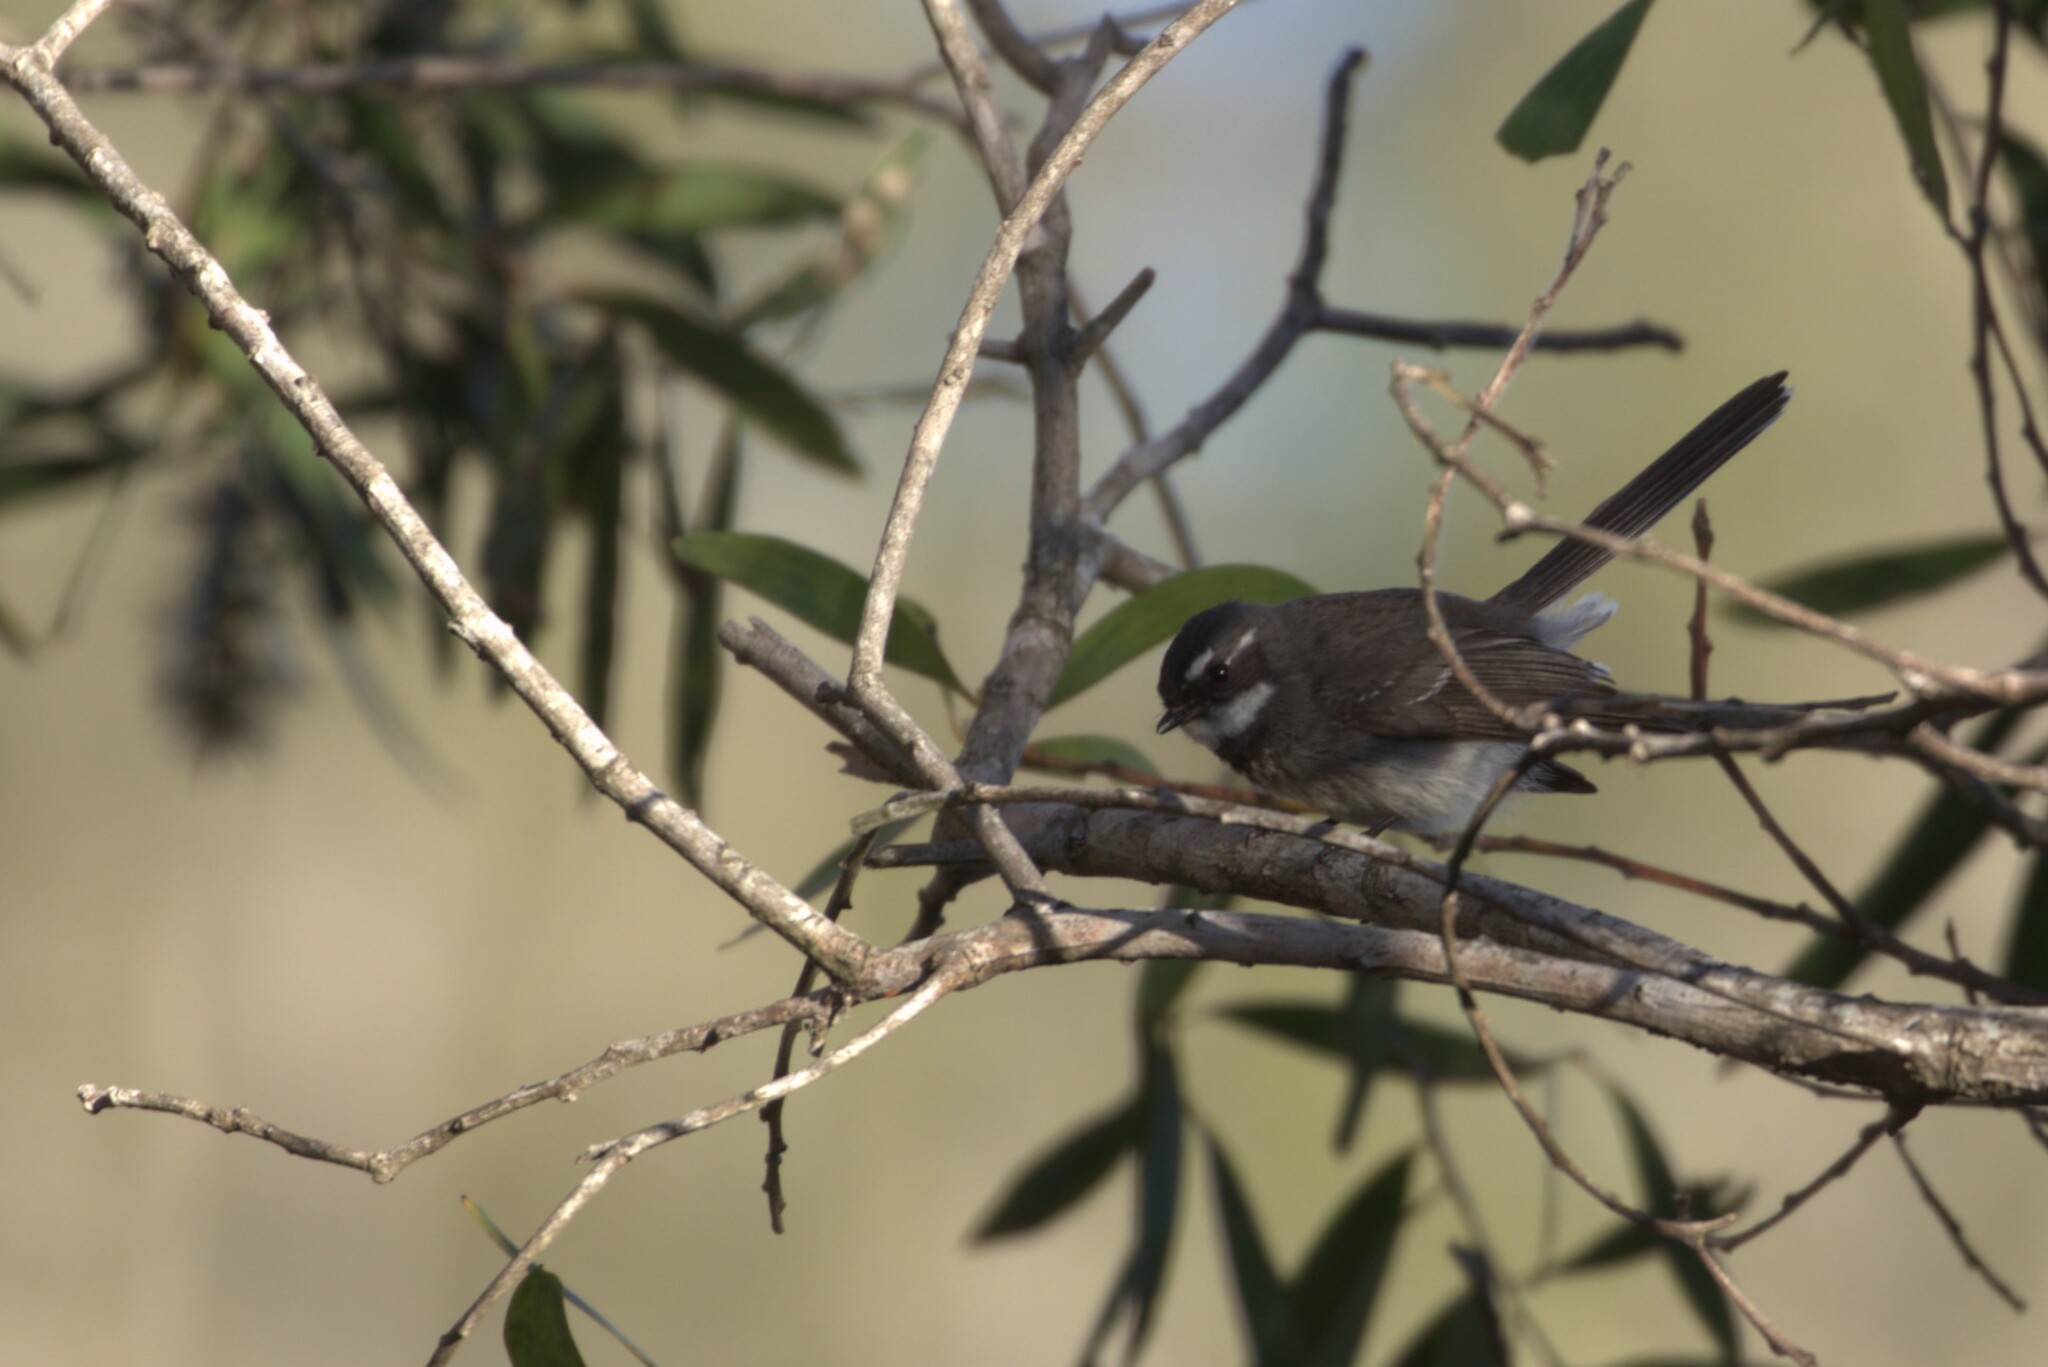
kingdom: Animalia
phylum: Chordata
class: Aves
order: Passeriformes
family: Rhipiduridae
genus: Rhipidura
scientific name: Rhipidura albiscapa
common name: Grey fantail
